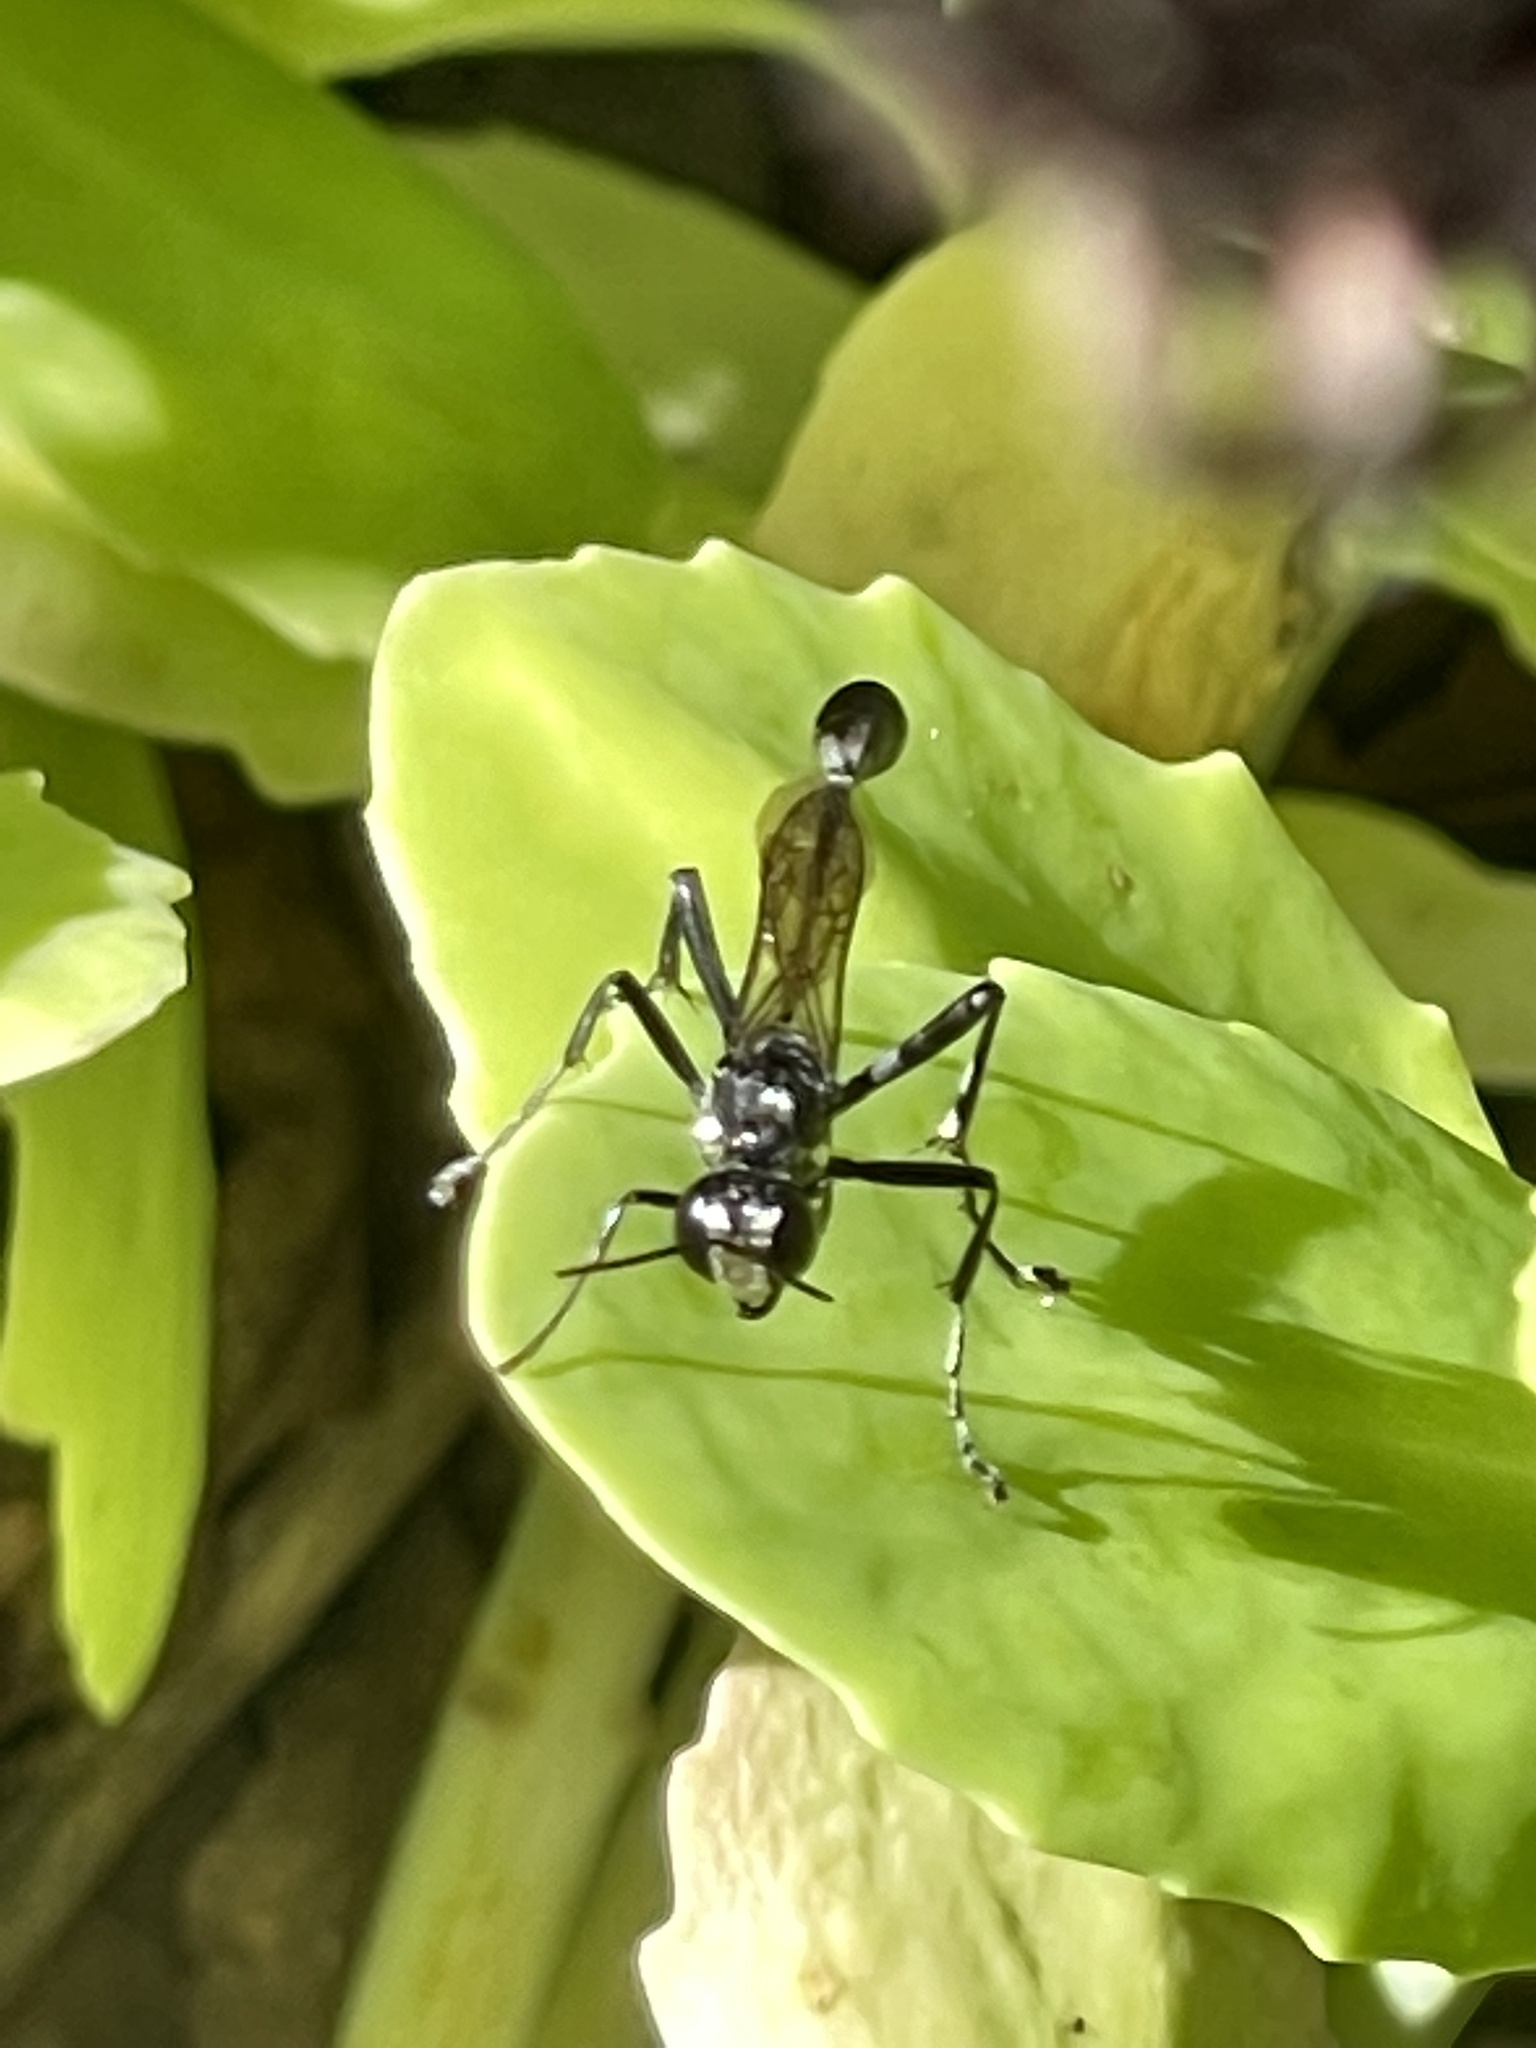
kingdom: Animalia
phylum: Arthropoda
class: Insecta
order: Hymenoptera
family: Sphecidae
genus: Eremnophila
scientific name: Eremnophila aureonotata
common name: Gold-marked thread-waisted wasp
